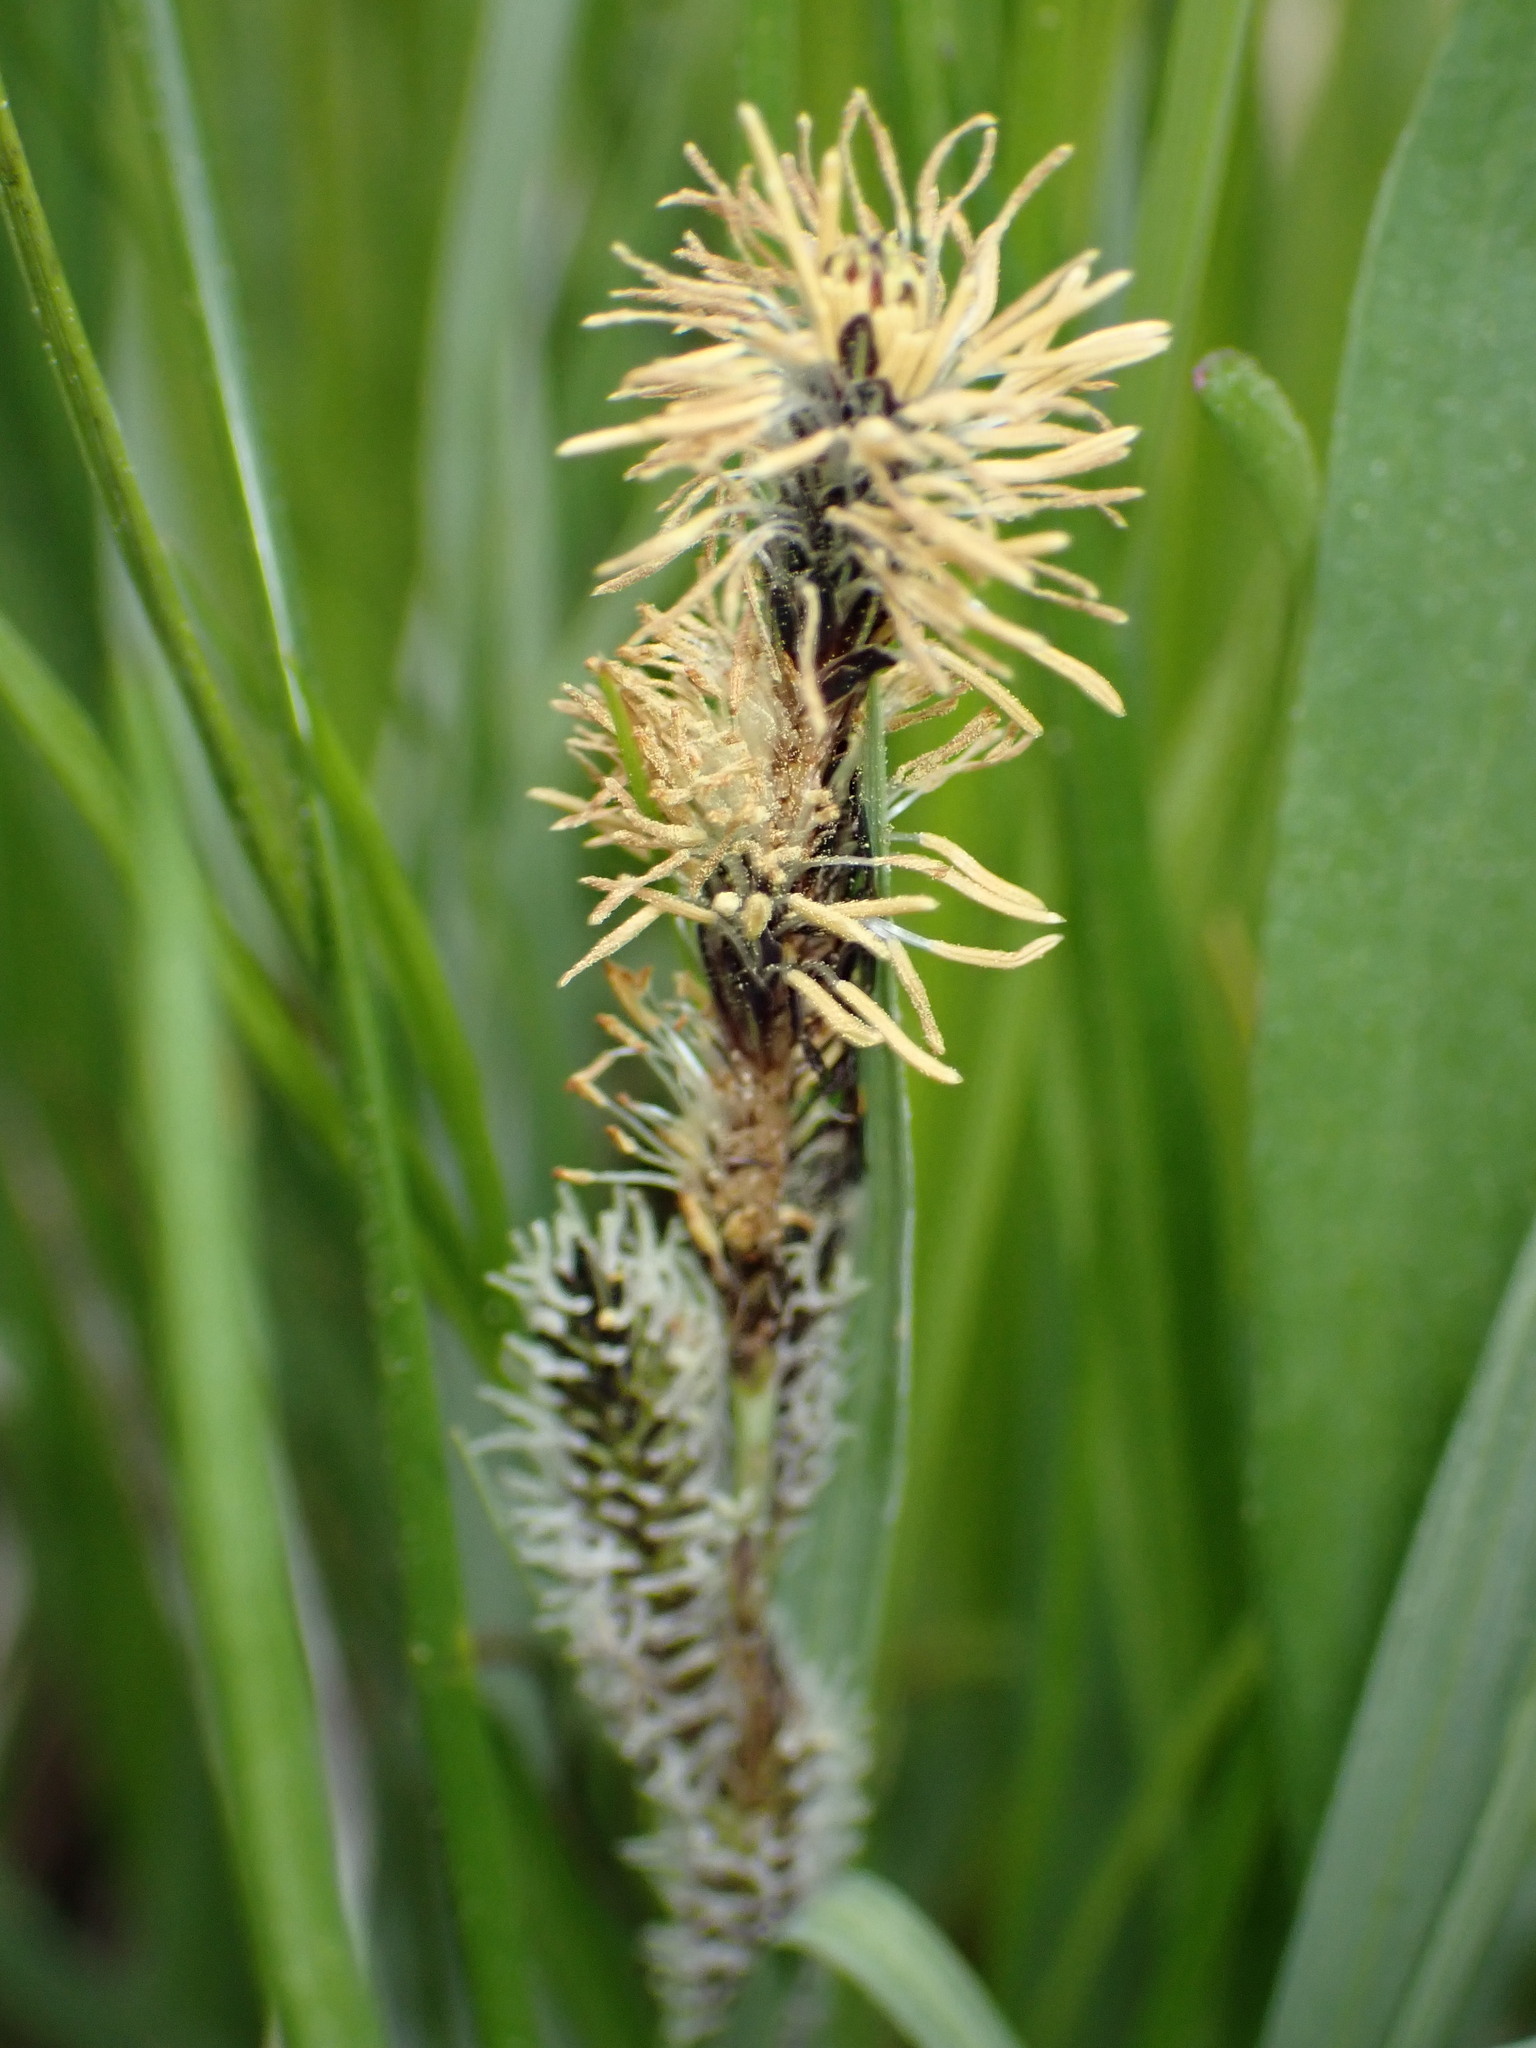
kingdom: Plantae
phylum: Tracheophyta
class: Liliopsida
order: Poales
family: Cyperaceae
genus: Carex
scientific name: Carex nudata
